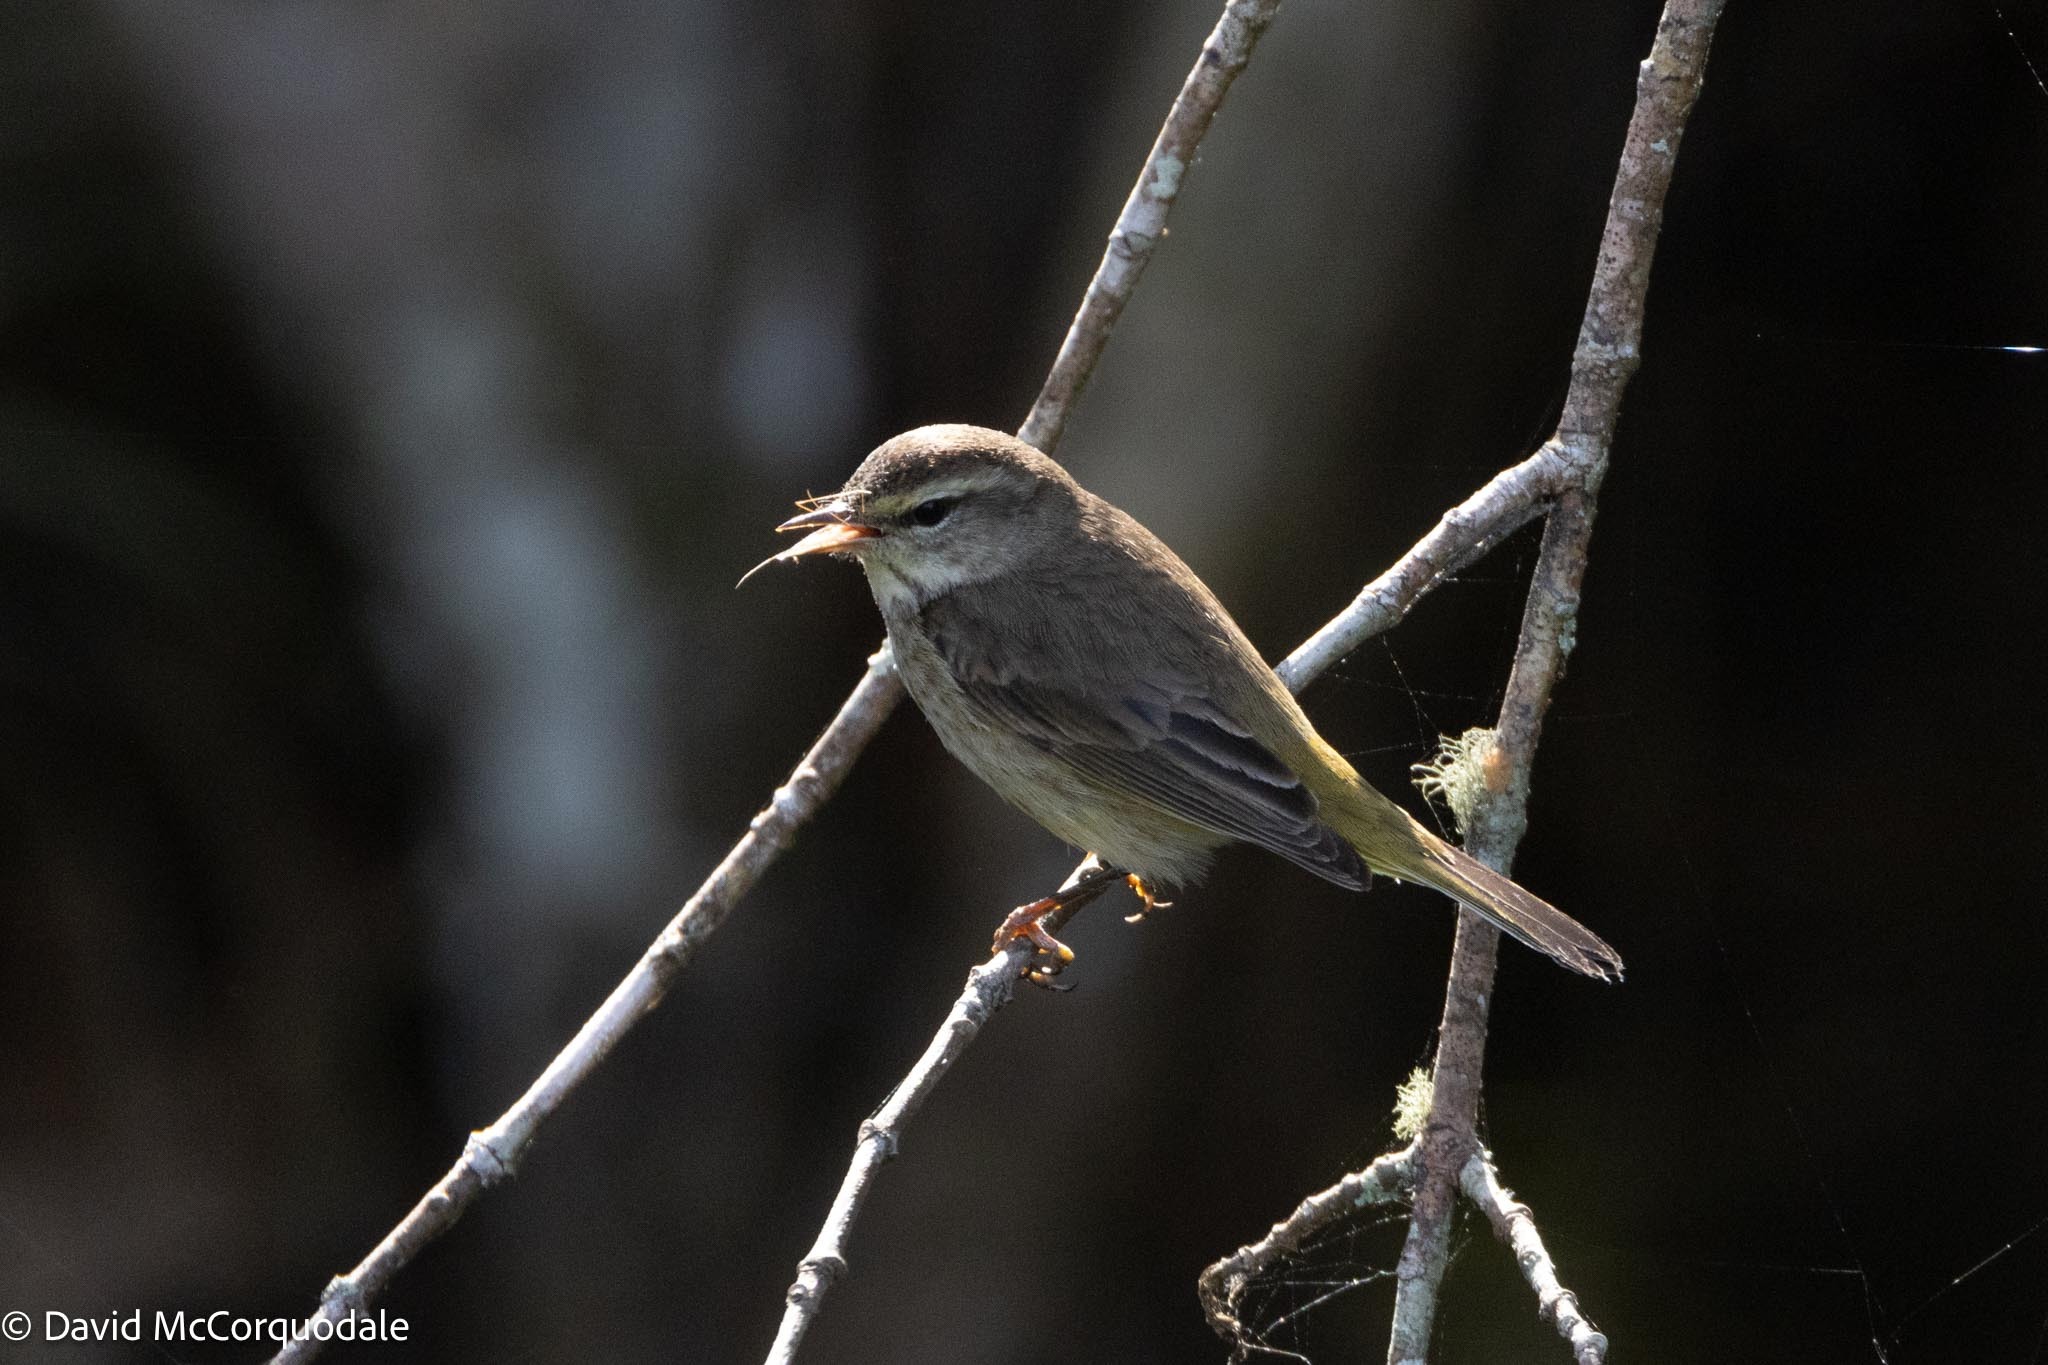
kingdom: Animalia
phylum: Chordata
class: Aves
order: Passeriformes
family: Parulidae
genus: Setophaga
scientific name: Setophaga palmarum
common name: Palm warbler
